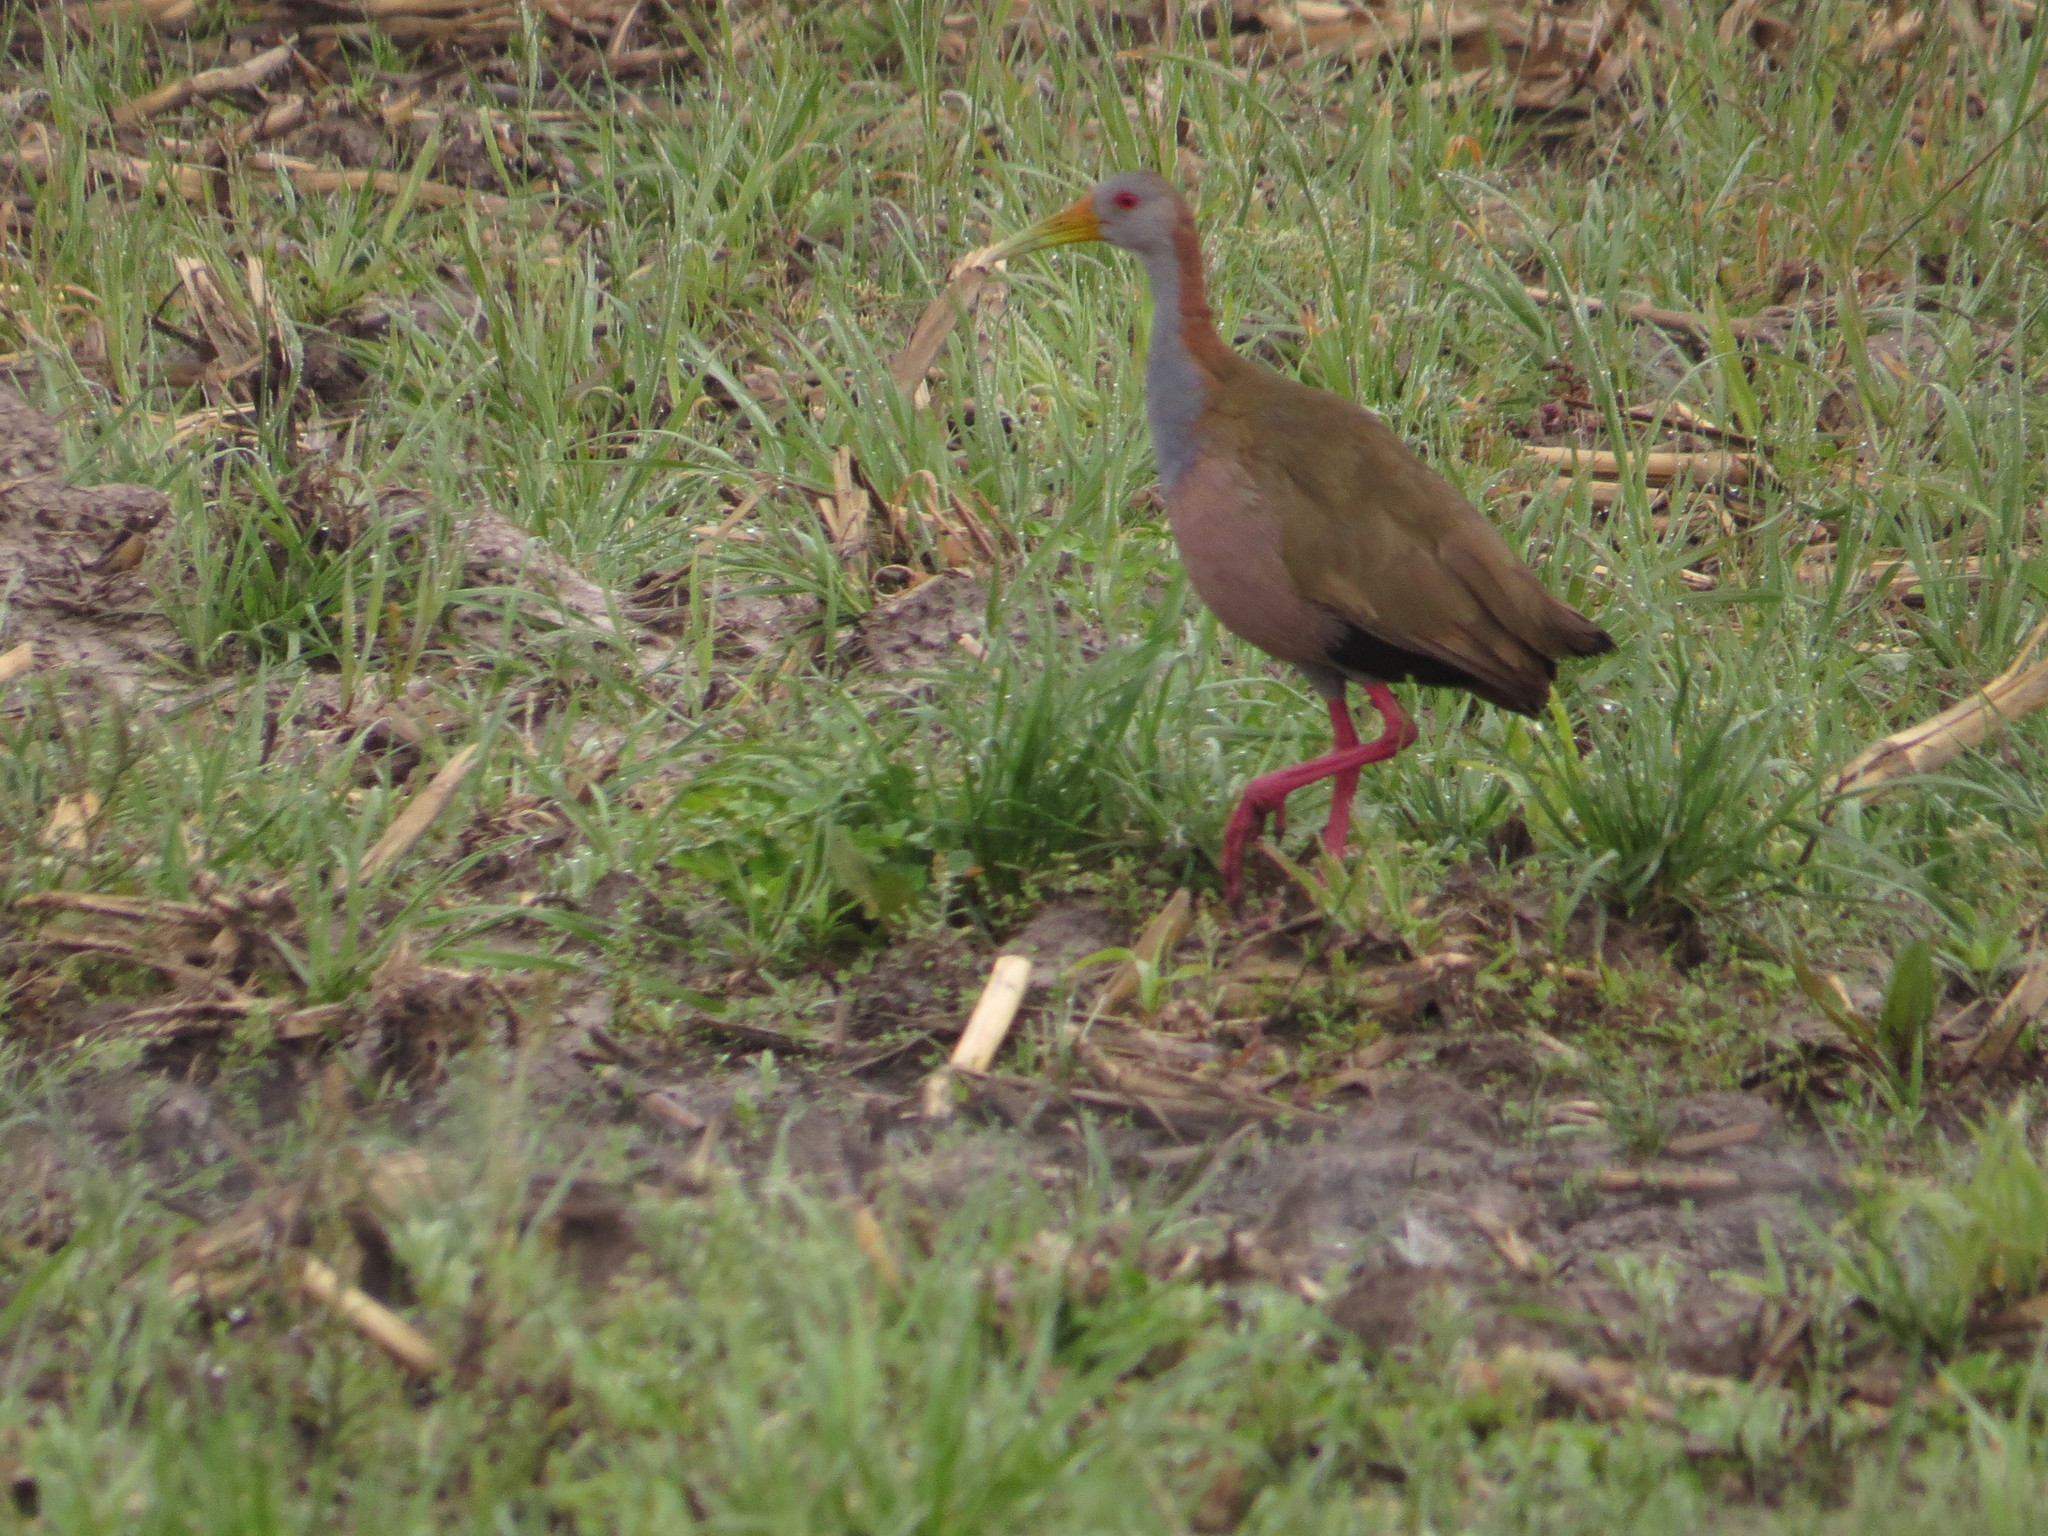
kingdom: Animalia
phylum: Chordata
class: Aves
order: Gruiformes
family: Rallidae
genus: Aramides
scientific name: Aramides ypecaha
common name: Giant wood rail
